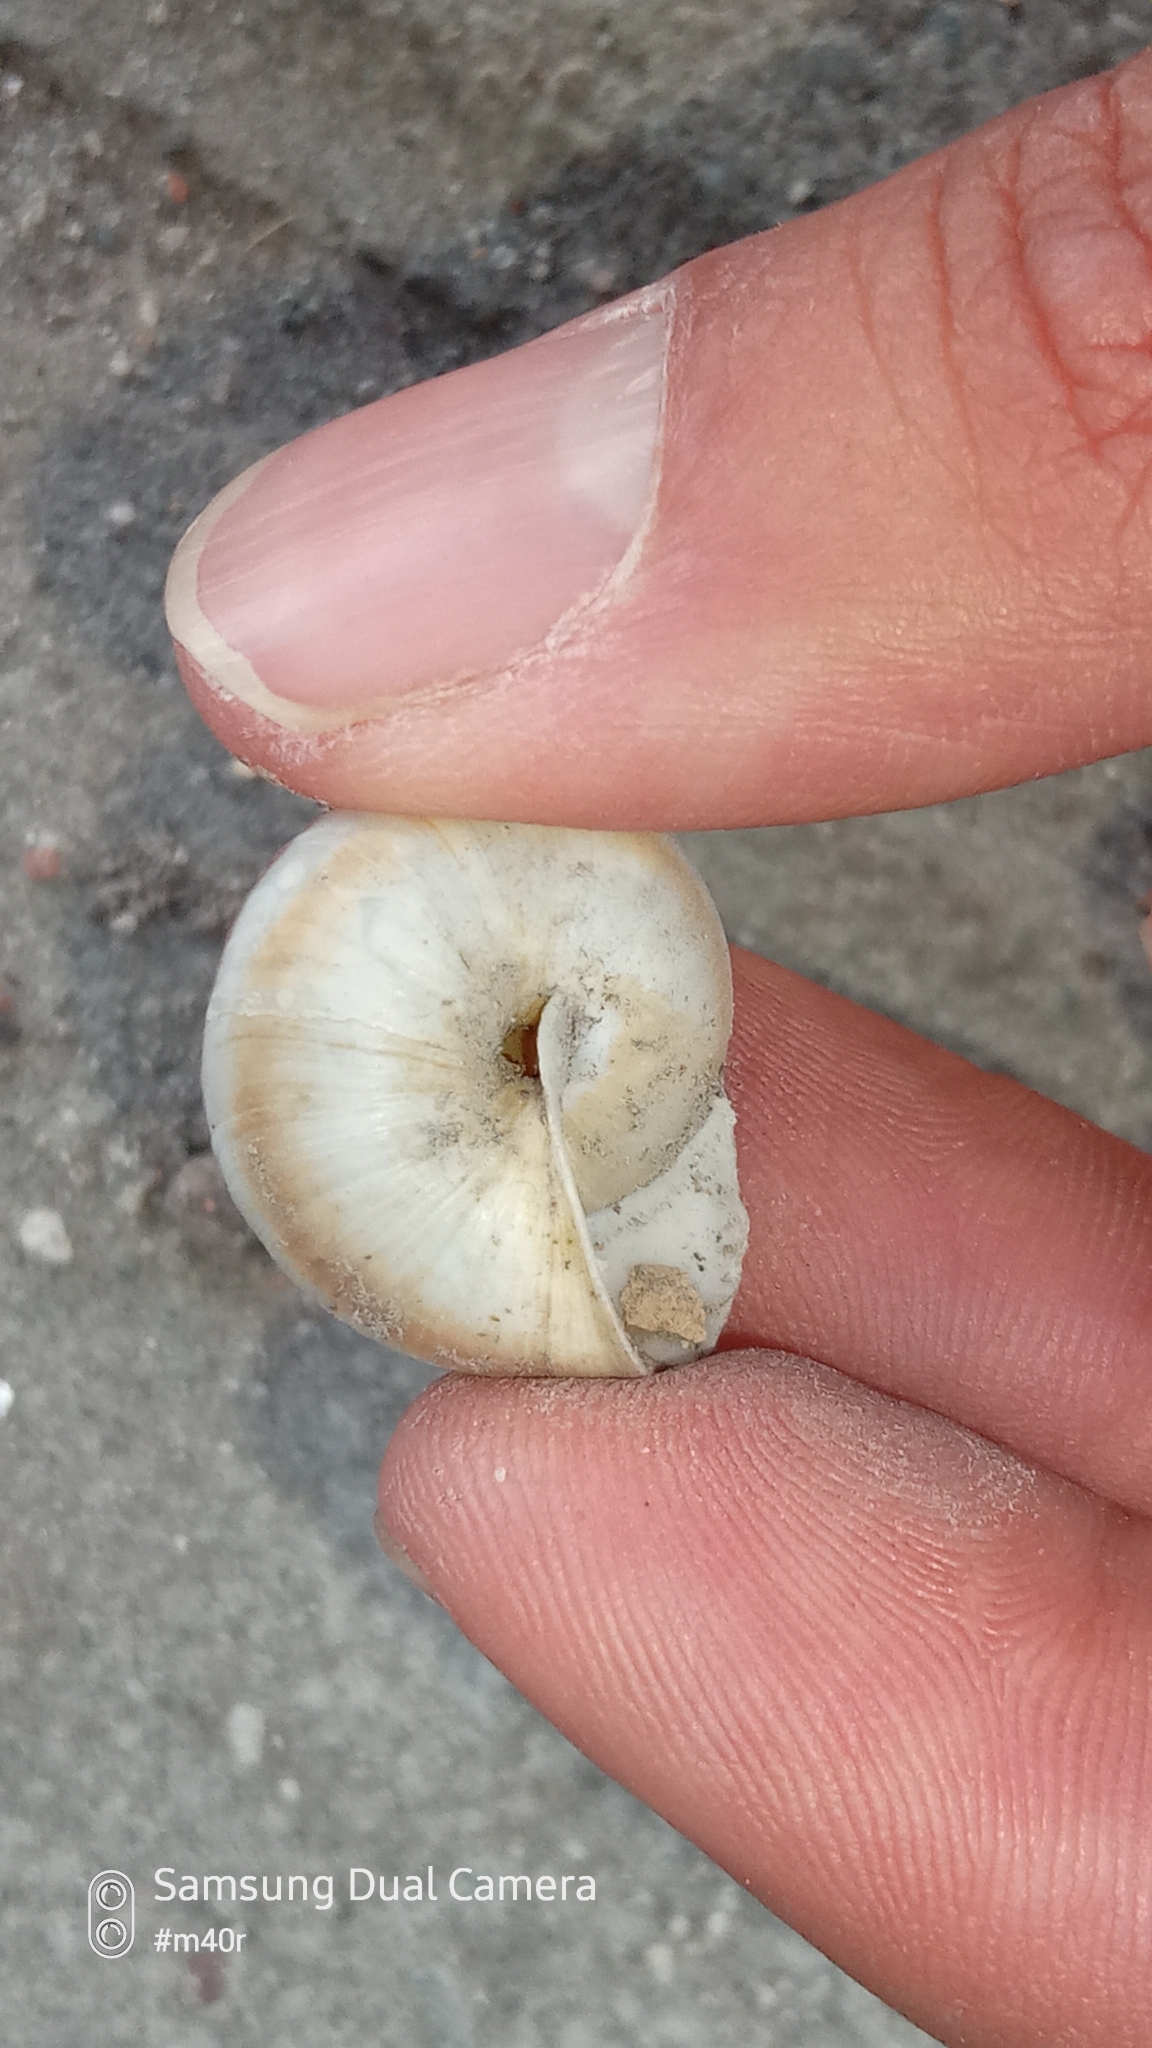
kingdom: Animalia
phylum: Mollusca
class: Gastropoda
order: Stylommatophora
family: Camaenidae
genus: Fruticicola
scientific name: Fruticicola lantzi
